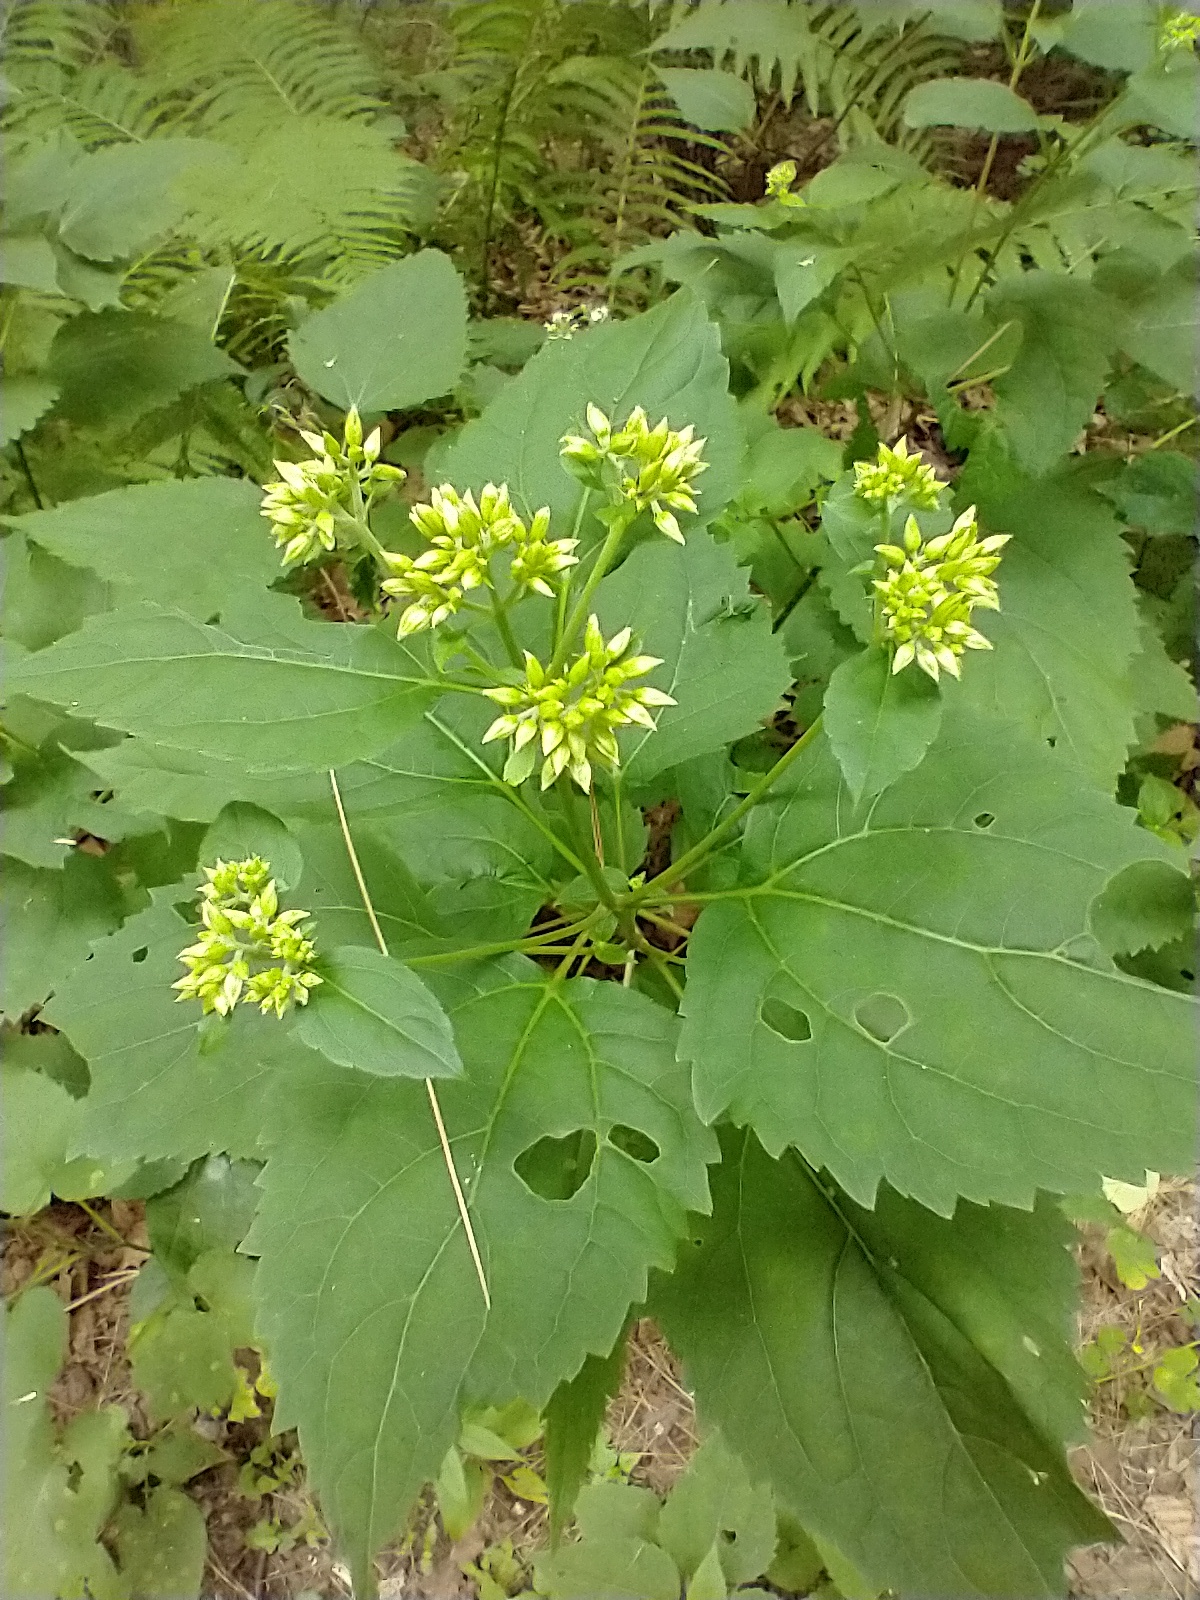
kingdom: Plantae
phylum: Tracheophyta
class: Magnoliopsida
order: Asterales
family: Asteraceae
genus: Ageratina
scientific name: Ageratina altissima
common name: White snakeroot
